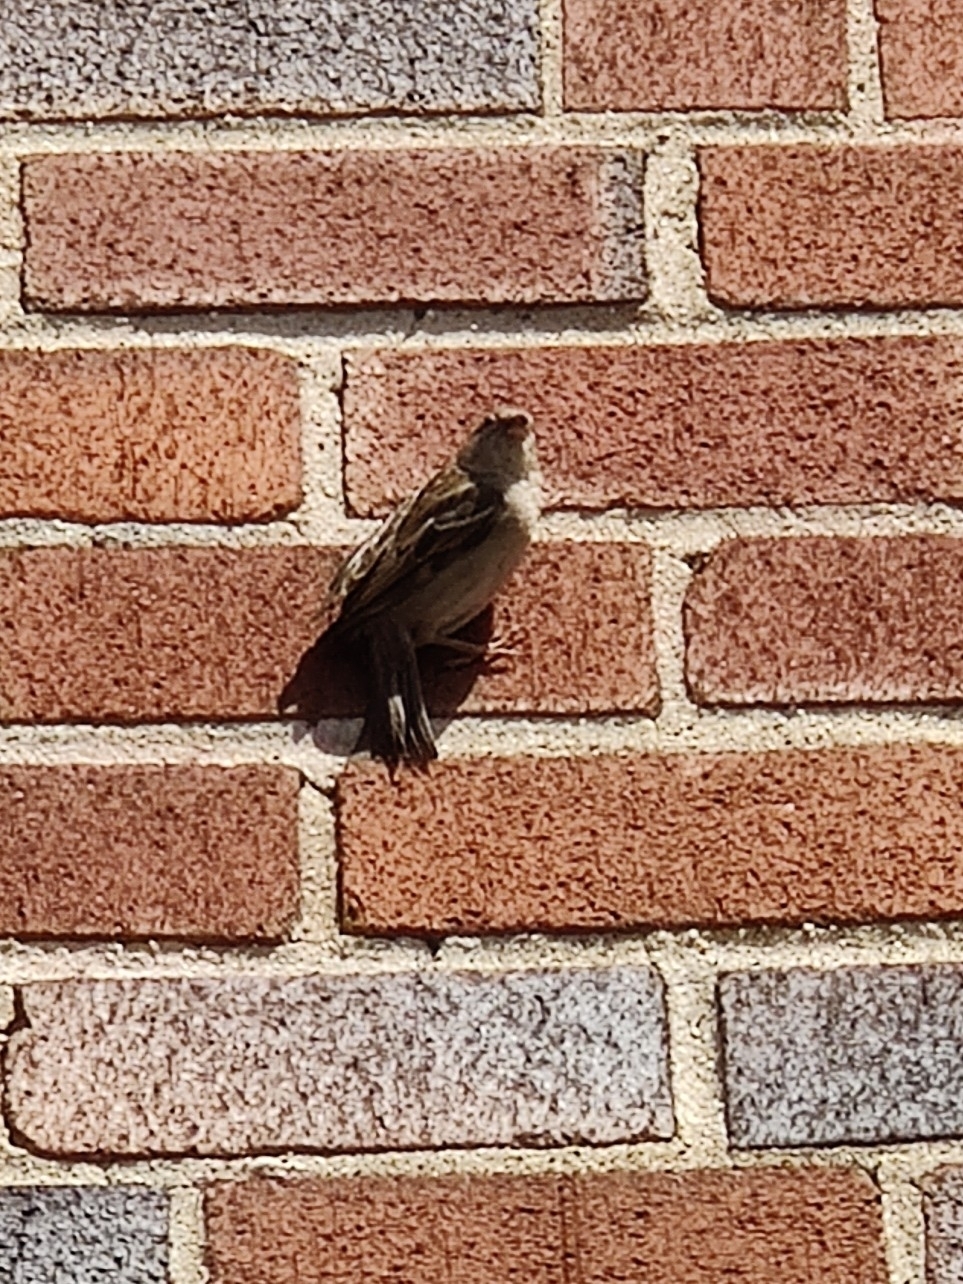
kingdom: Animalia
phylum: Chordata
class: Aves
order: Passeriformes
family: Passeridae
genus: Passer
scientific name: Passer domesticus
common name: House sparrow
